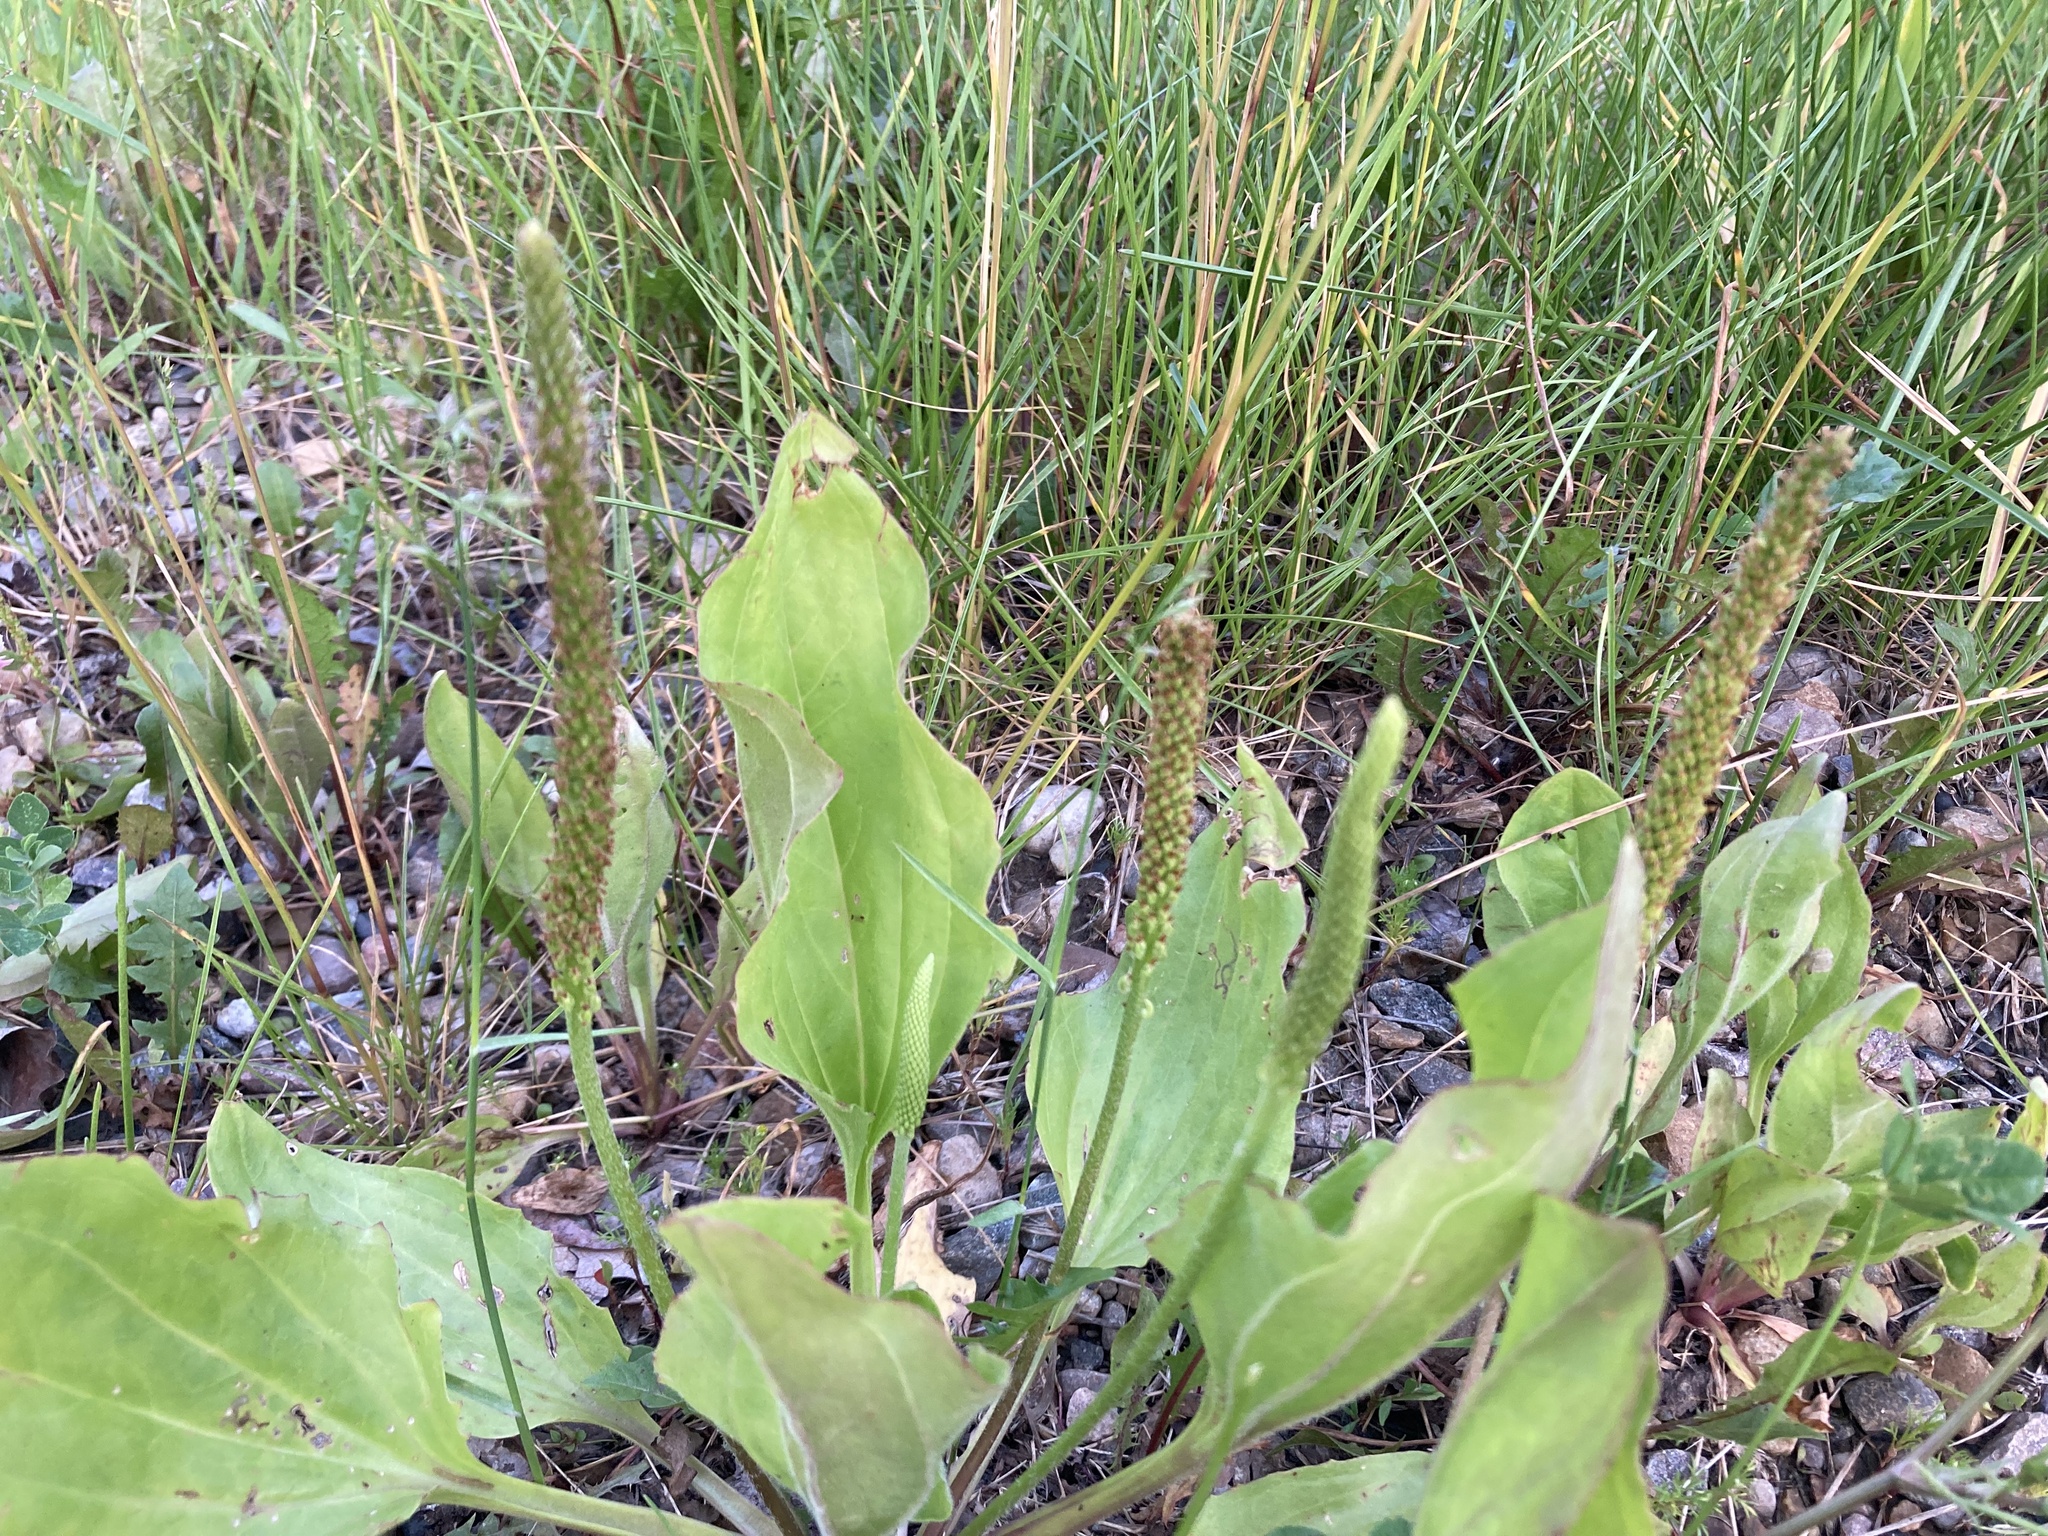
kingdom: Plantae
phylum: Tracheophyta
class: Magnoliopsida
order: Lamiales
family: Plantaginaceae
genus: Plantago
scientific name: Plantago major
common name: Common plantain
